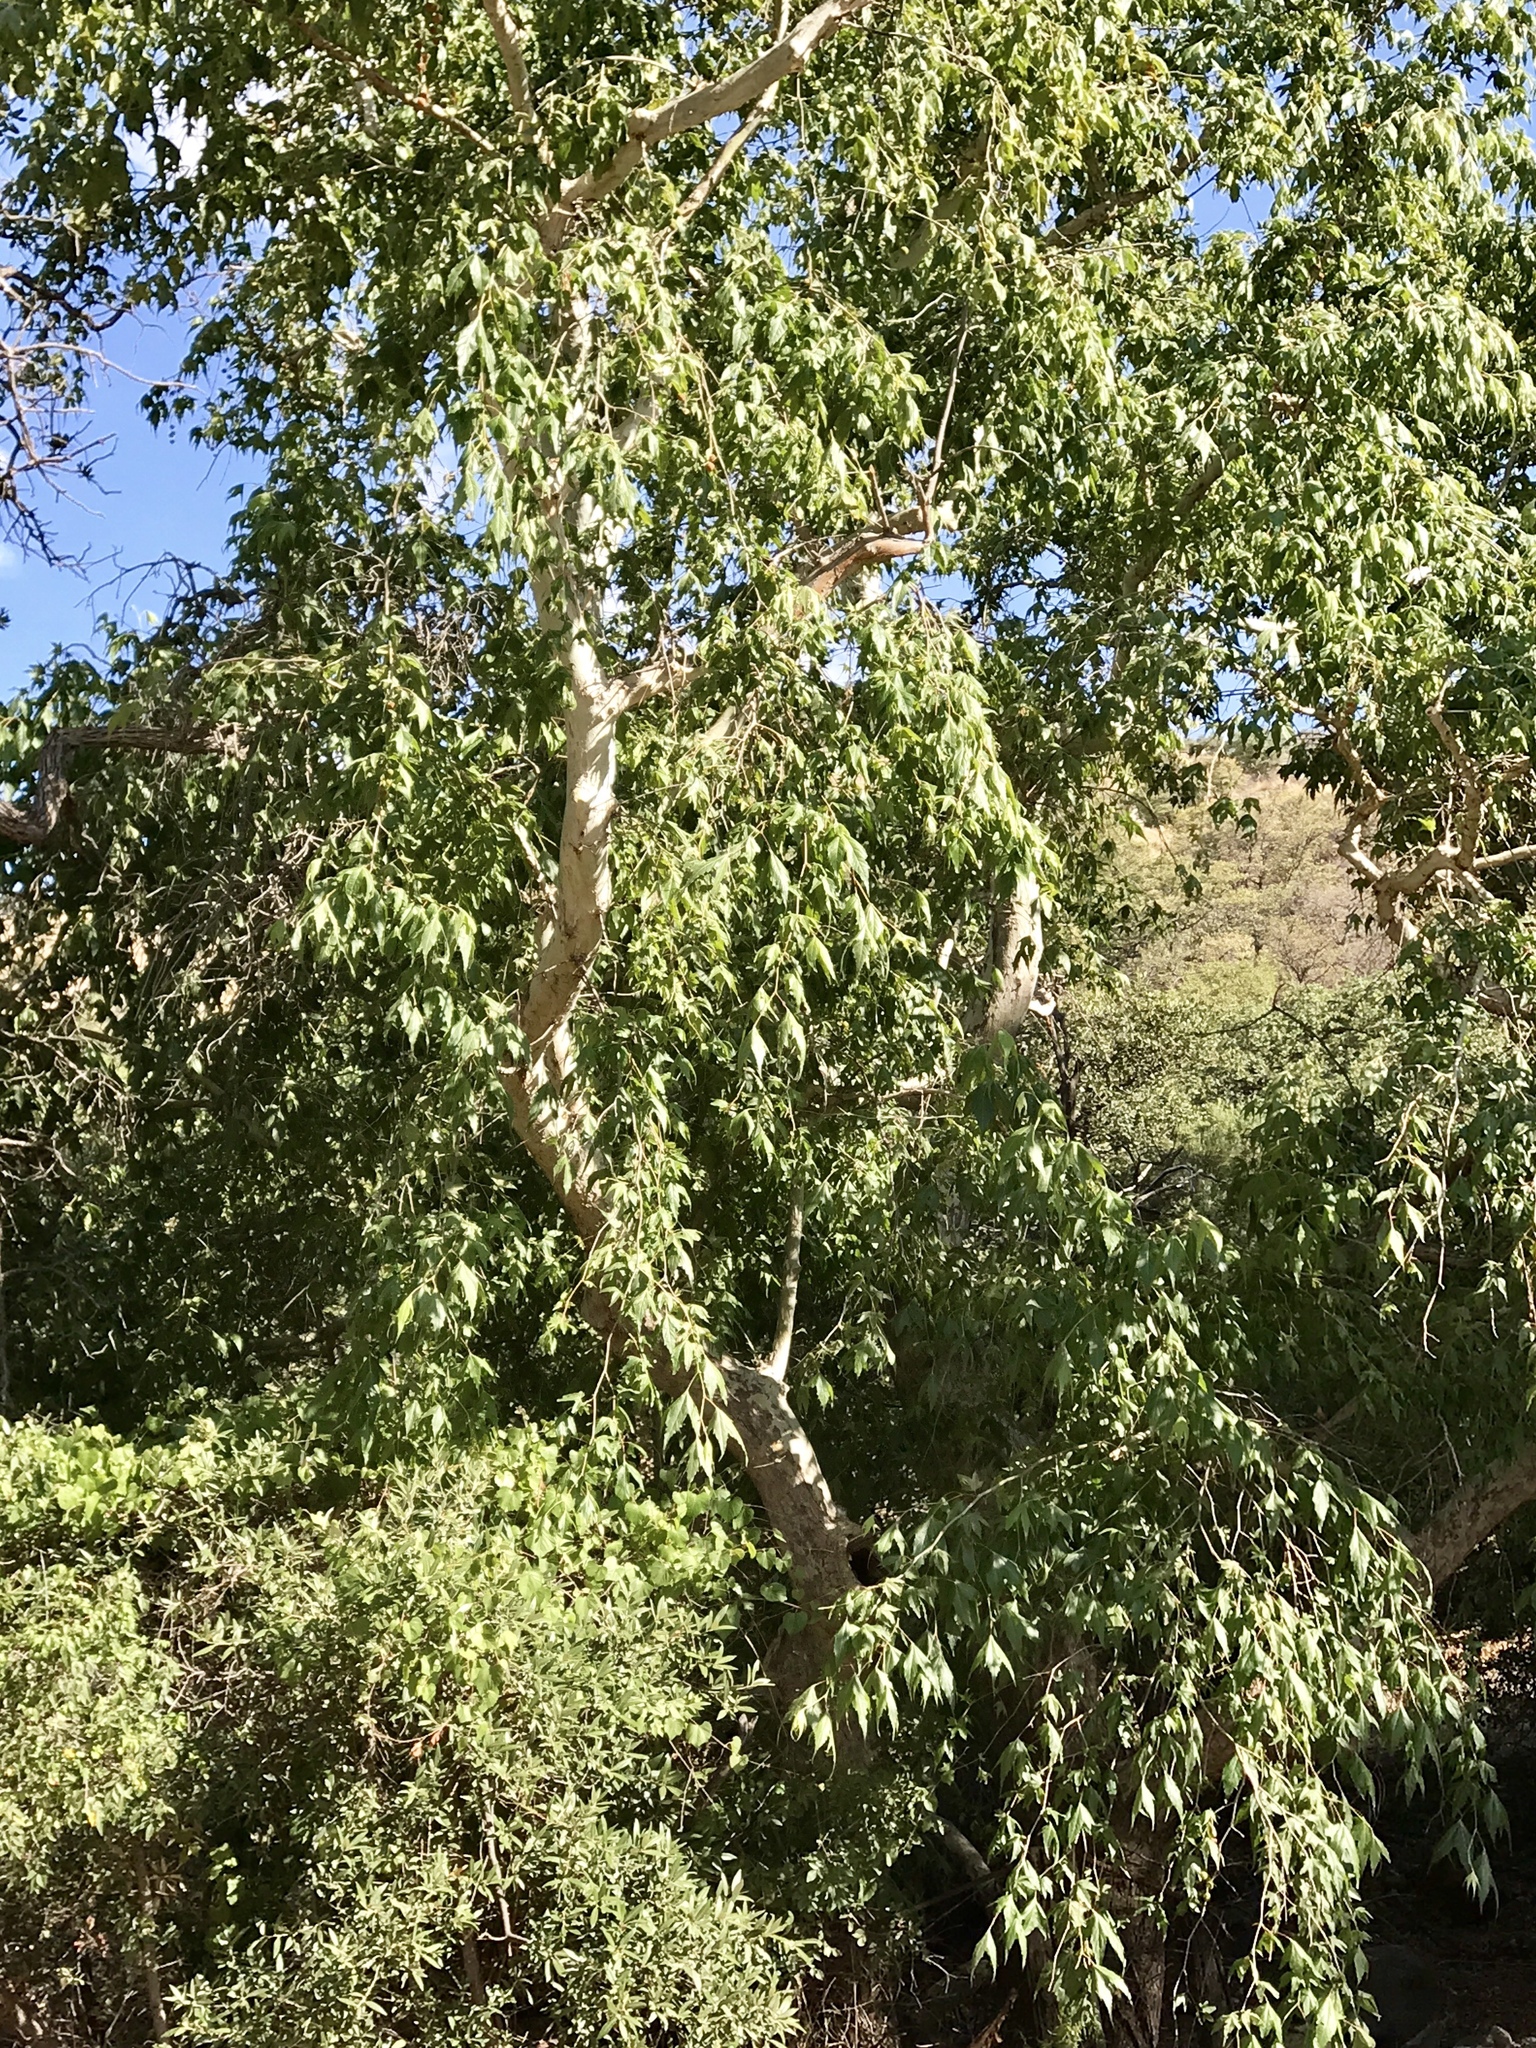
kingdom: Plantae
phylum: Tracheophyta
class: Magnoliopsida
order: Proteales
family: Platanaceae
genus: Platanus
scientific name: Platanus wrightii
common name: Arizona sycamore
